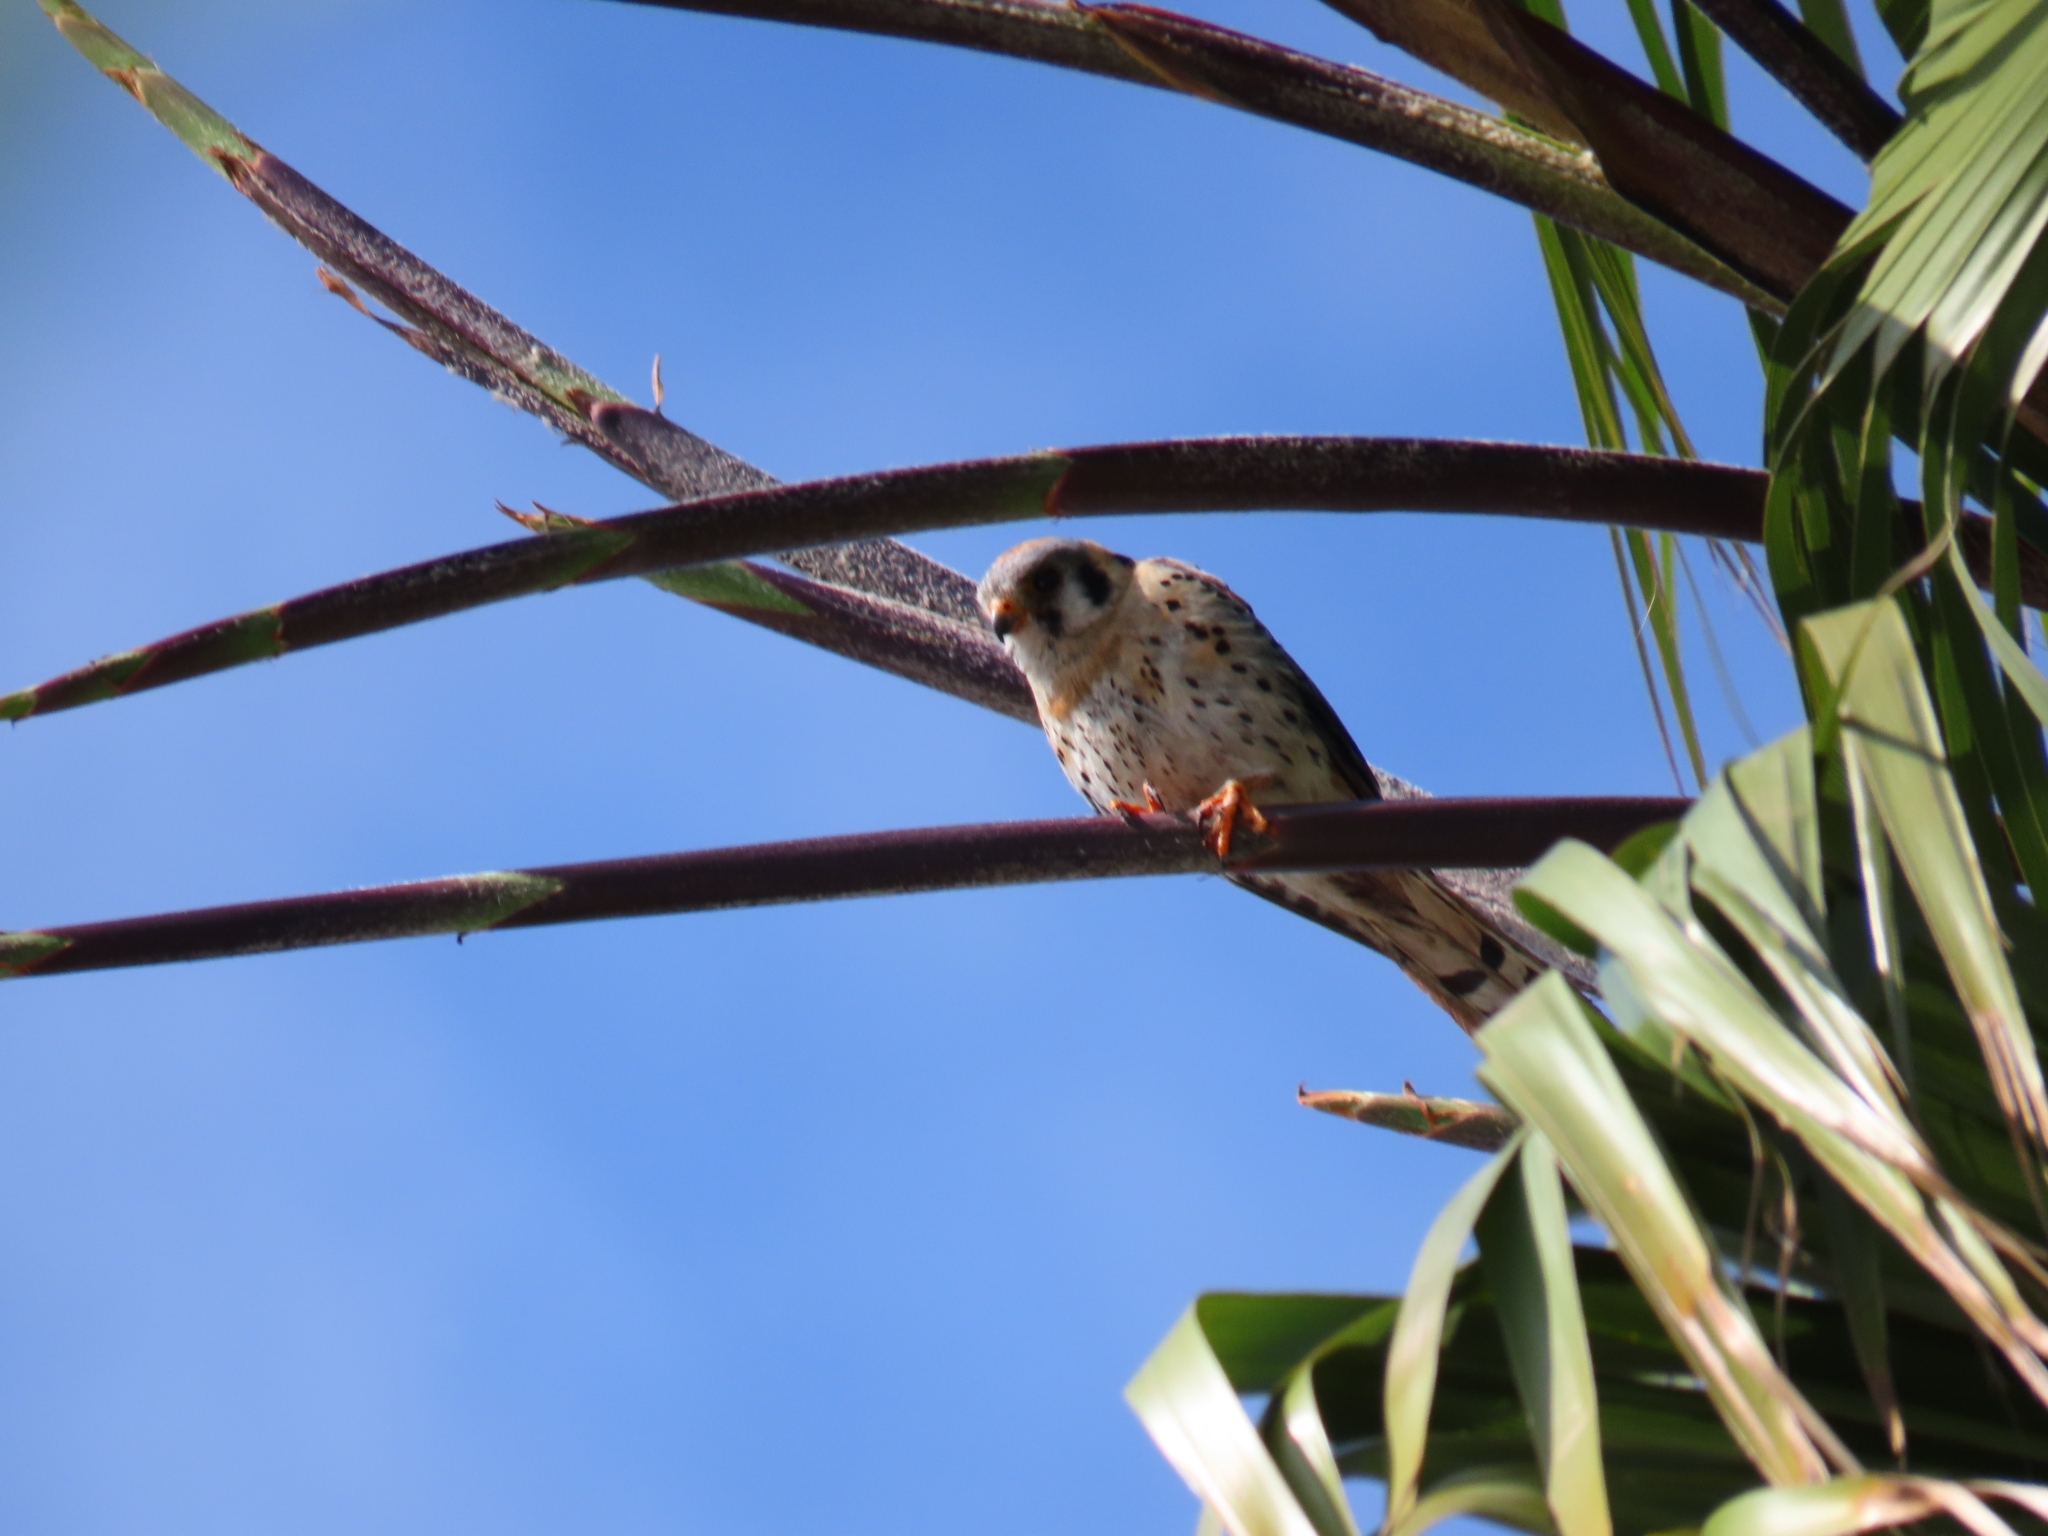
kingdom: Animalia
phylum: Chordata
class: Aves
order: Falconiformes
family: Falconidae
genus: Falco
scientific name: Falco sparverius
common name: American kestrel
